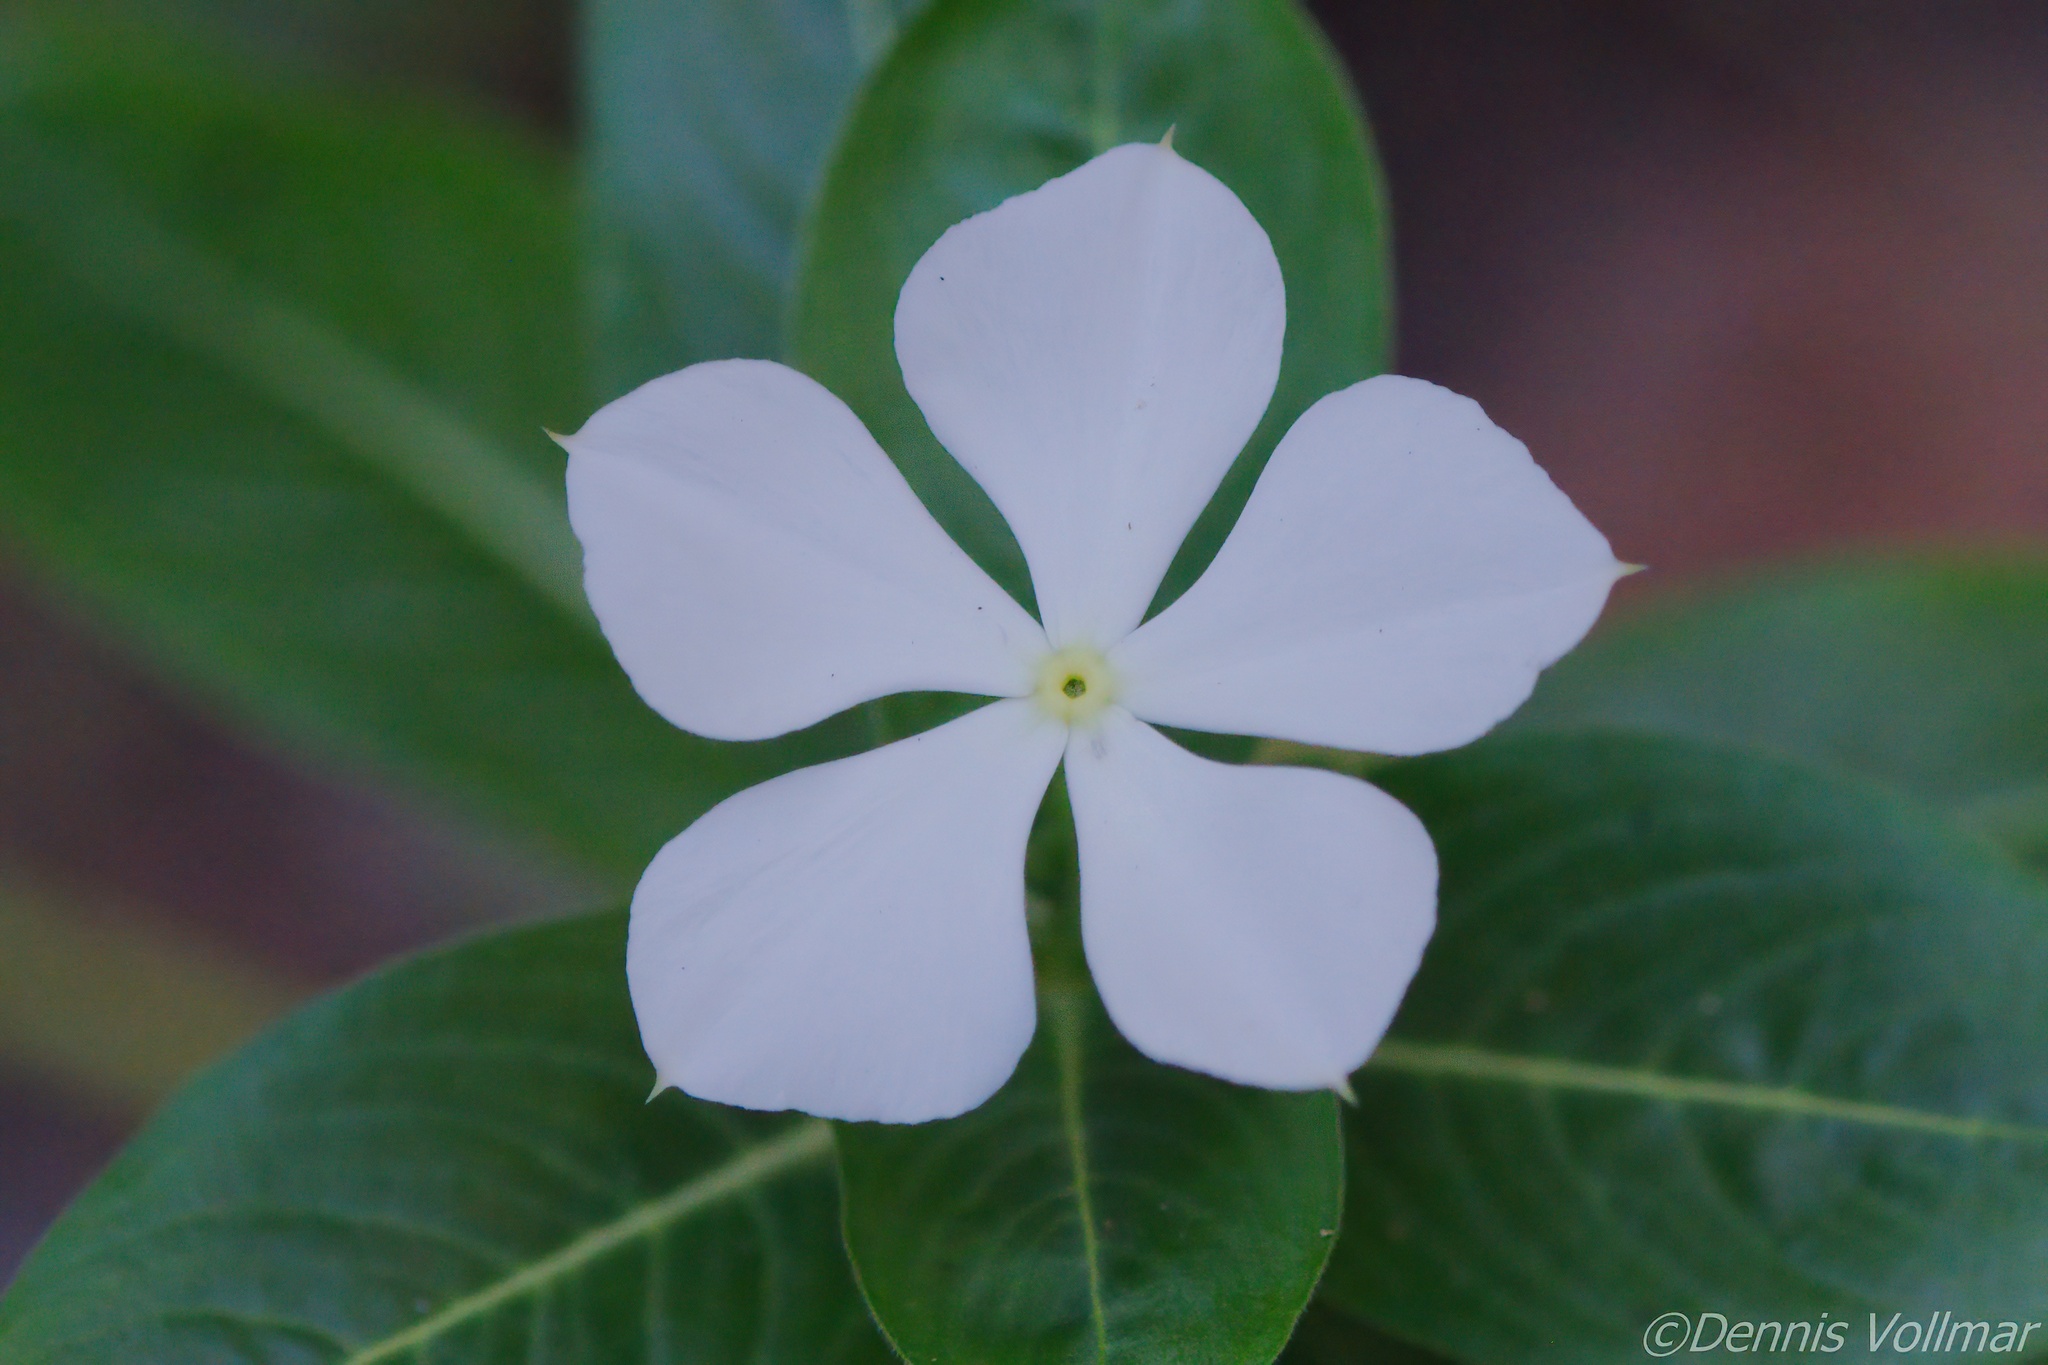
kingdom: Plantae
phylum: Tracheophyta
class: Magnoliopsida
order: Gentianales
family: Apocynaceae
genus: Catharanthus
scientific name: Catharanthus roseus
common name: Madagascar periwinkle
